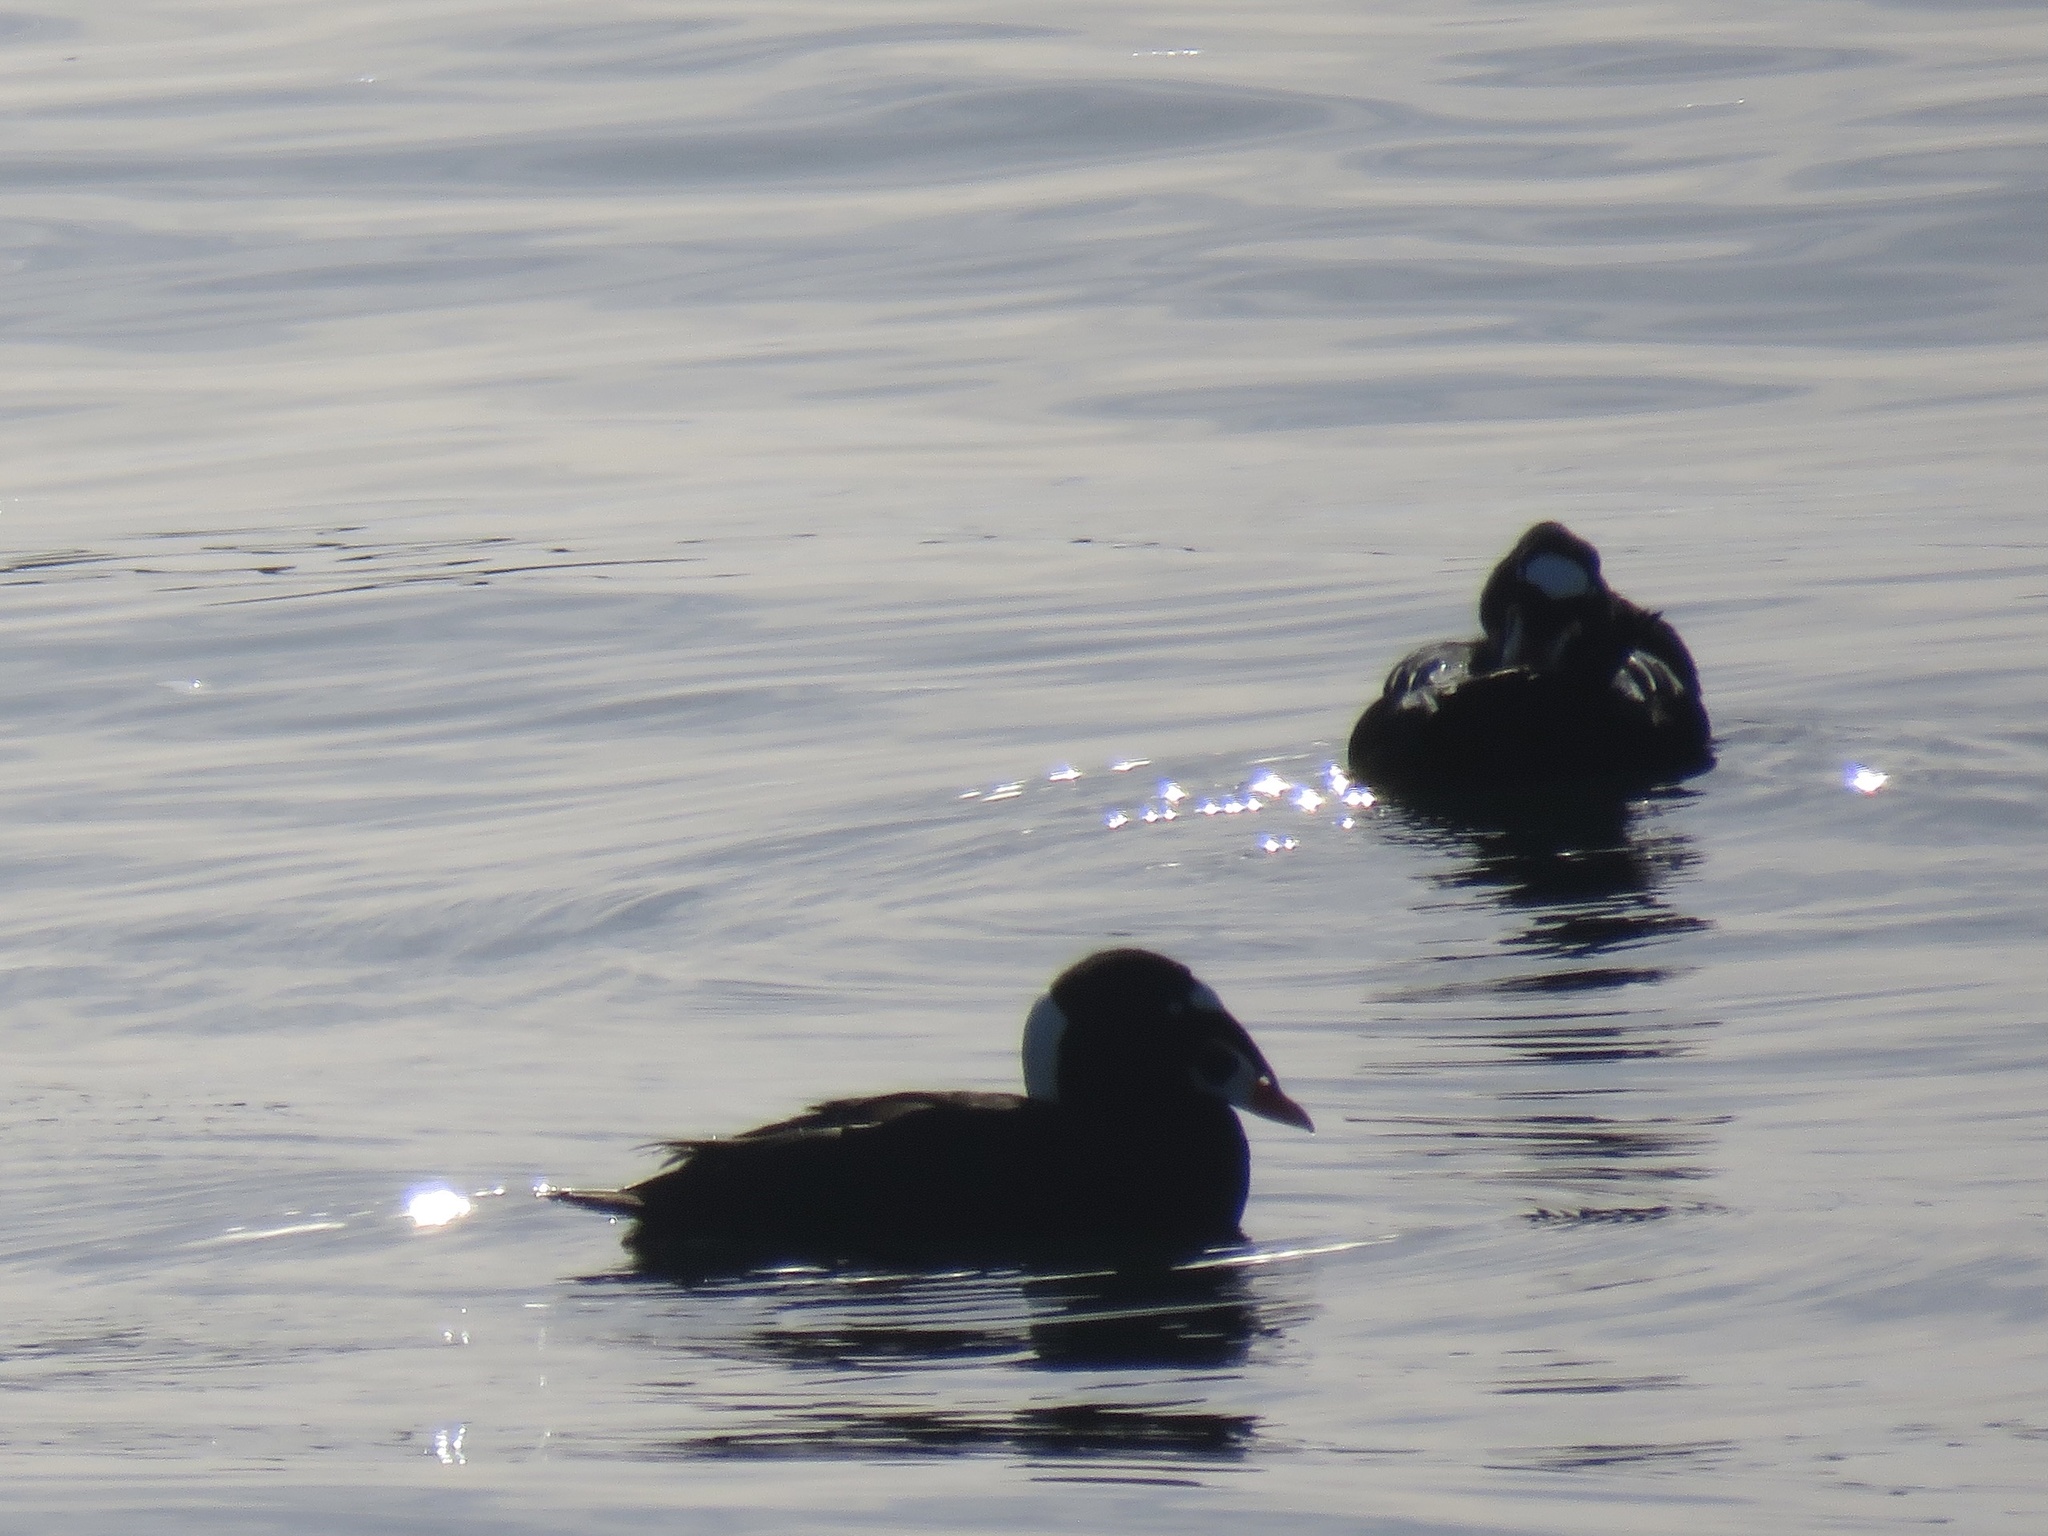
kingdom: Animalia
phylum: Chordata
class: Aves
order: Anseriformes
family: Anatidae
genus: Melanitta
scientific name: Melanitta perspicillata
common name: Surf scoter
